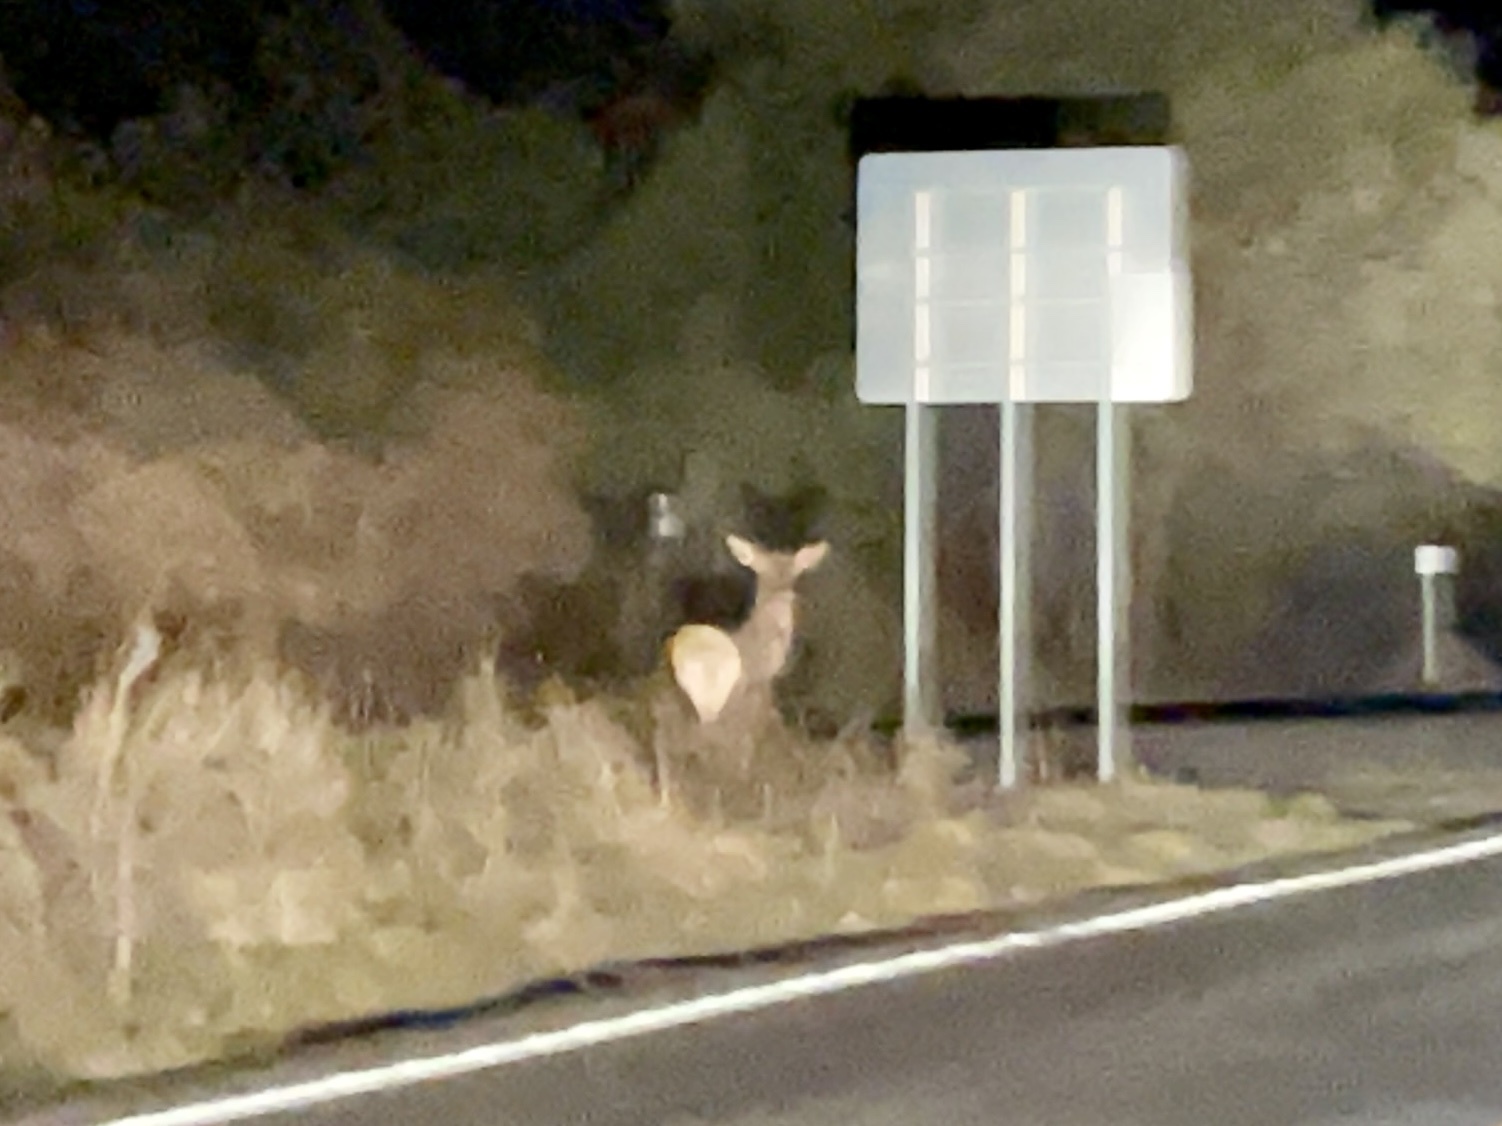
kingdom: Animalia
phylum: Chordata
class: Mammalia
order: Artiodactyla
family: Cervidae
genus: Cervus
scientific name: Cervus elaphus
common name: Red deer
